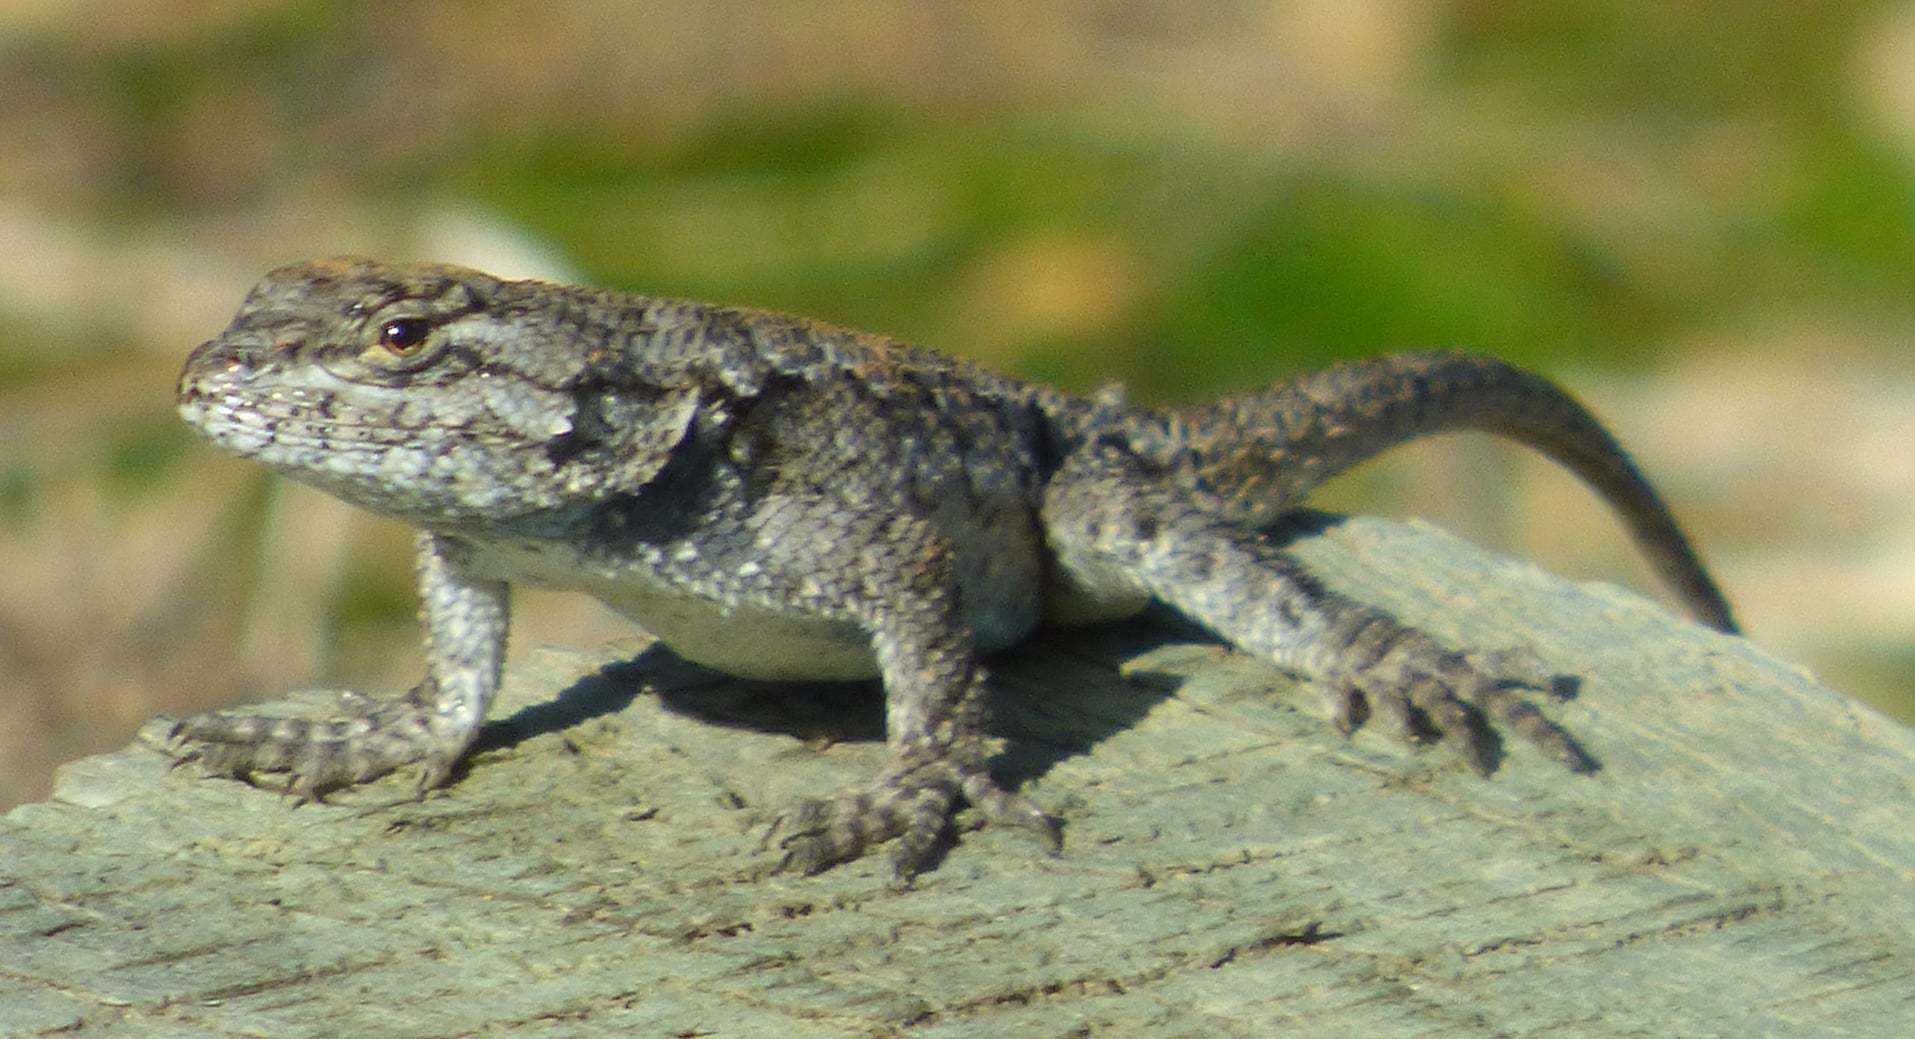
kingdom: Animalia
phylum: Chordata
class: Squamata
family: Phrynosomatidae
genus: Sceloporus
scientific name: Sceloporus undulatus
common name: Eastern fence lizard
